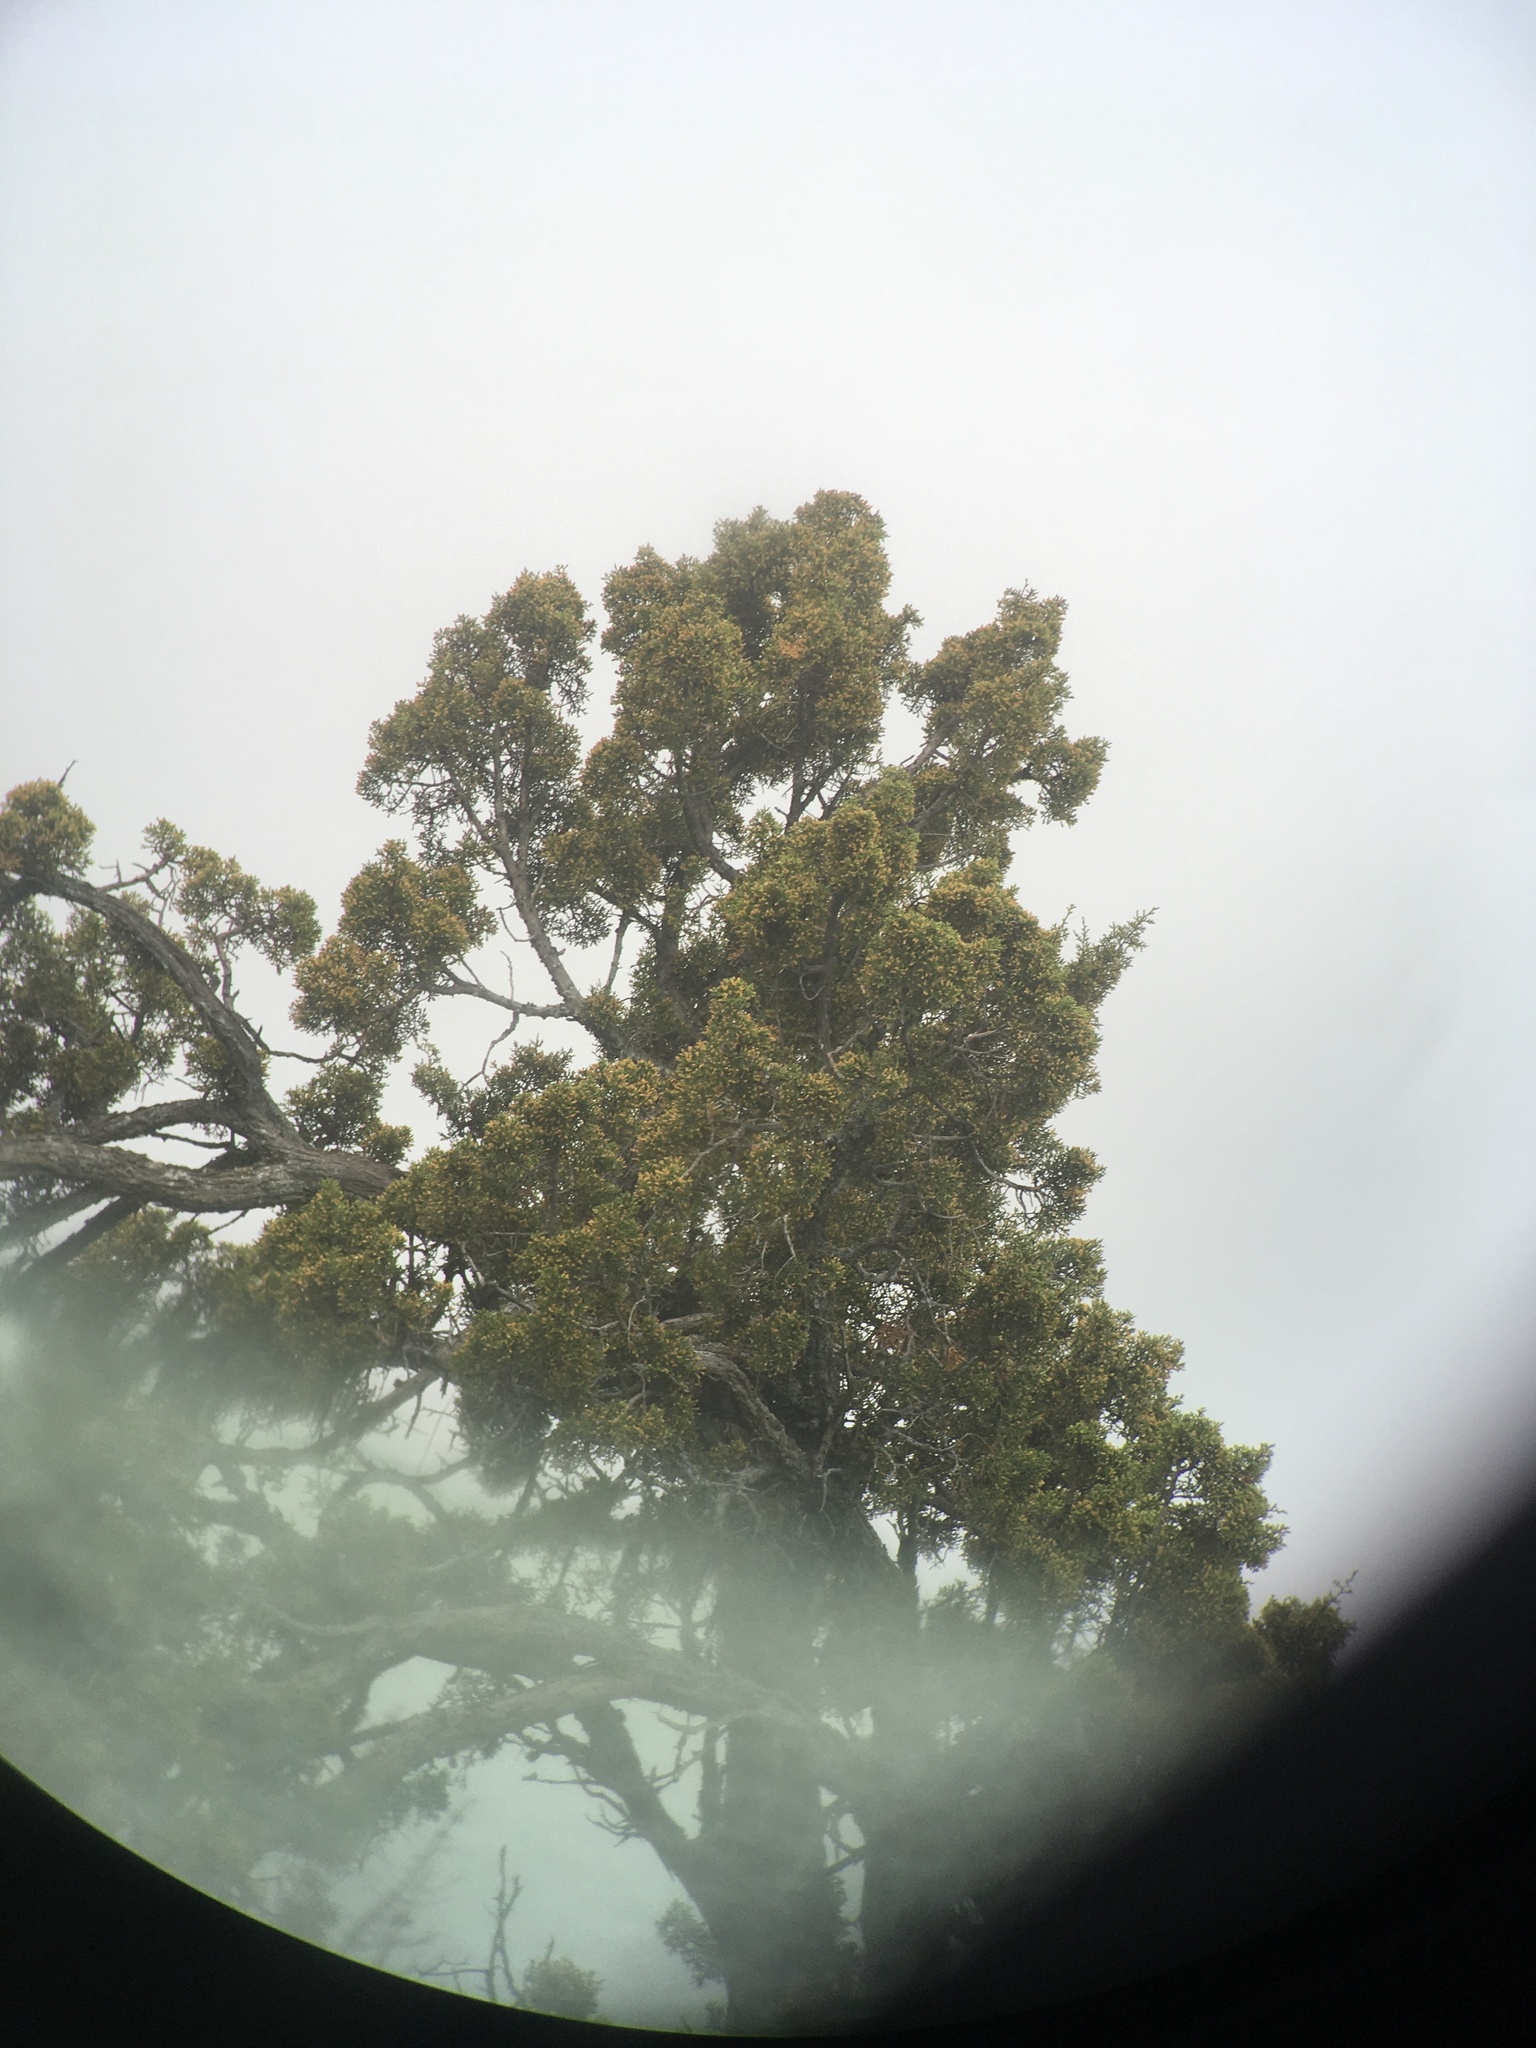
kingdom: Plantae
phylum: Tracheophyta
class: Pinopsida
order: Pinales
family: Cupressaceae
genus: Juniperus
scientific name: Juniperus californica
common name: California juniper
